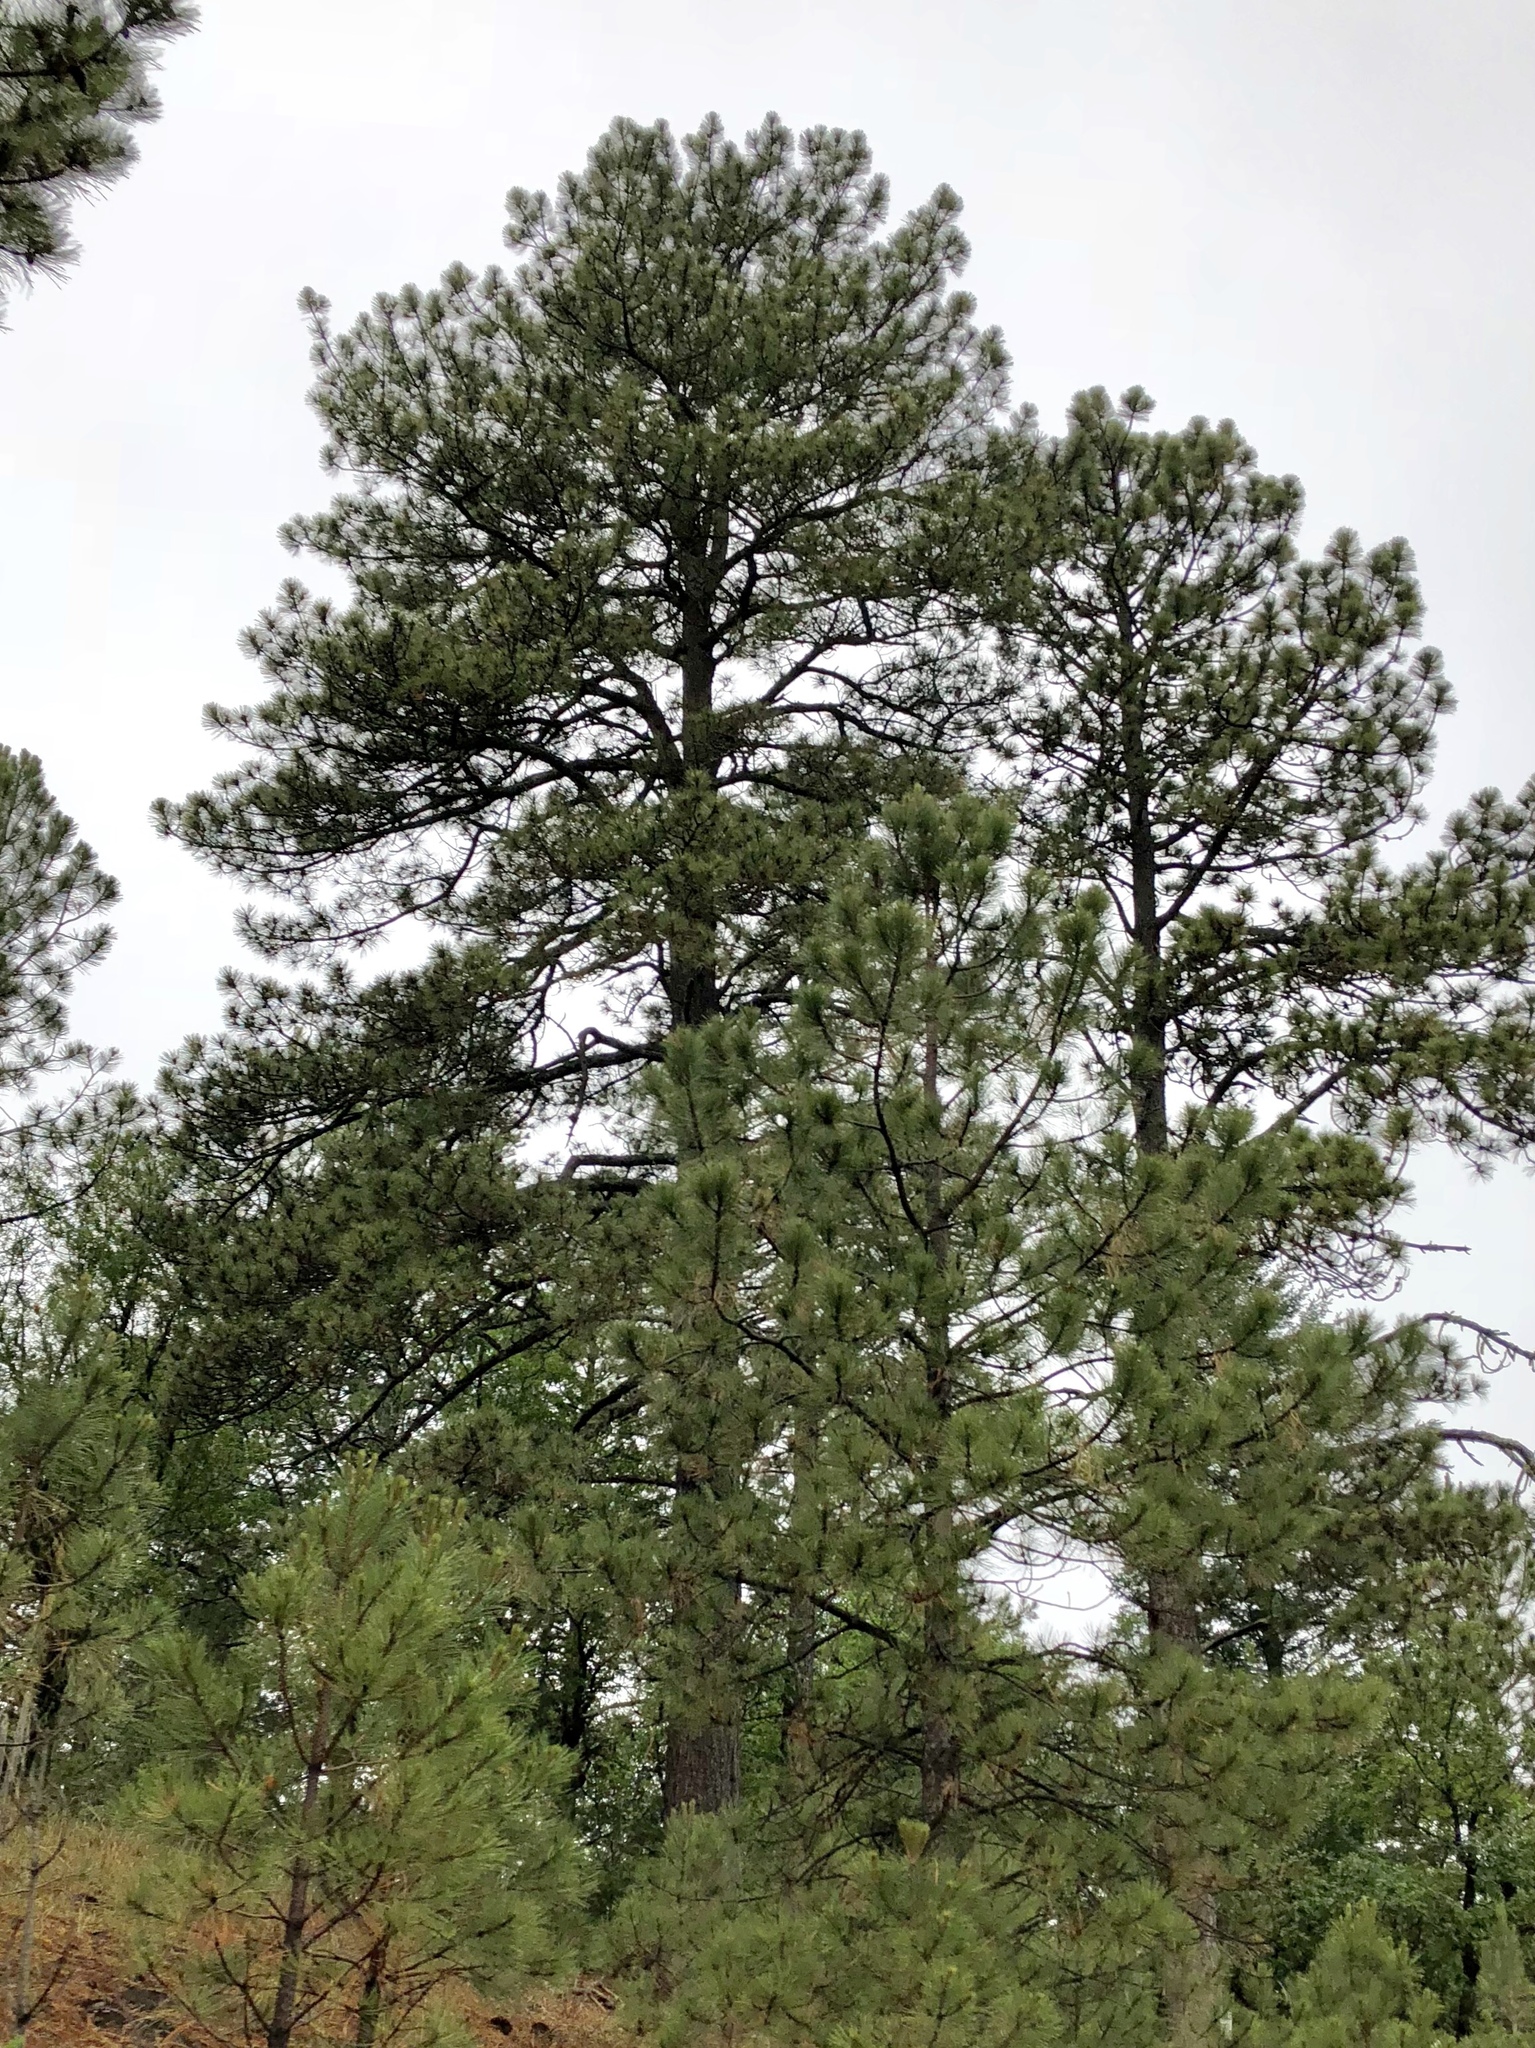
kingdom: Plantae
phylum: Tracheophyta
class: Pinopsida
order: Pinales
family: Pinaceae
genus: Pinus
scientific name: Pinus ponderosa
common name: Western yellow-pine
